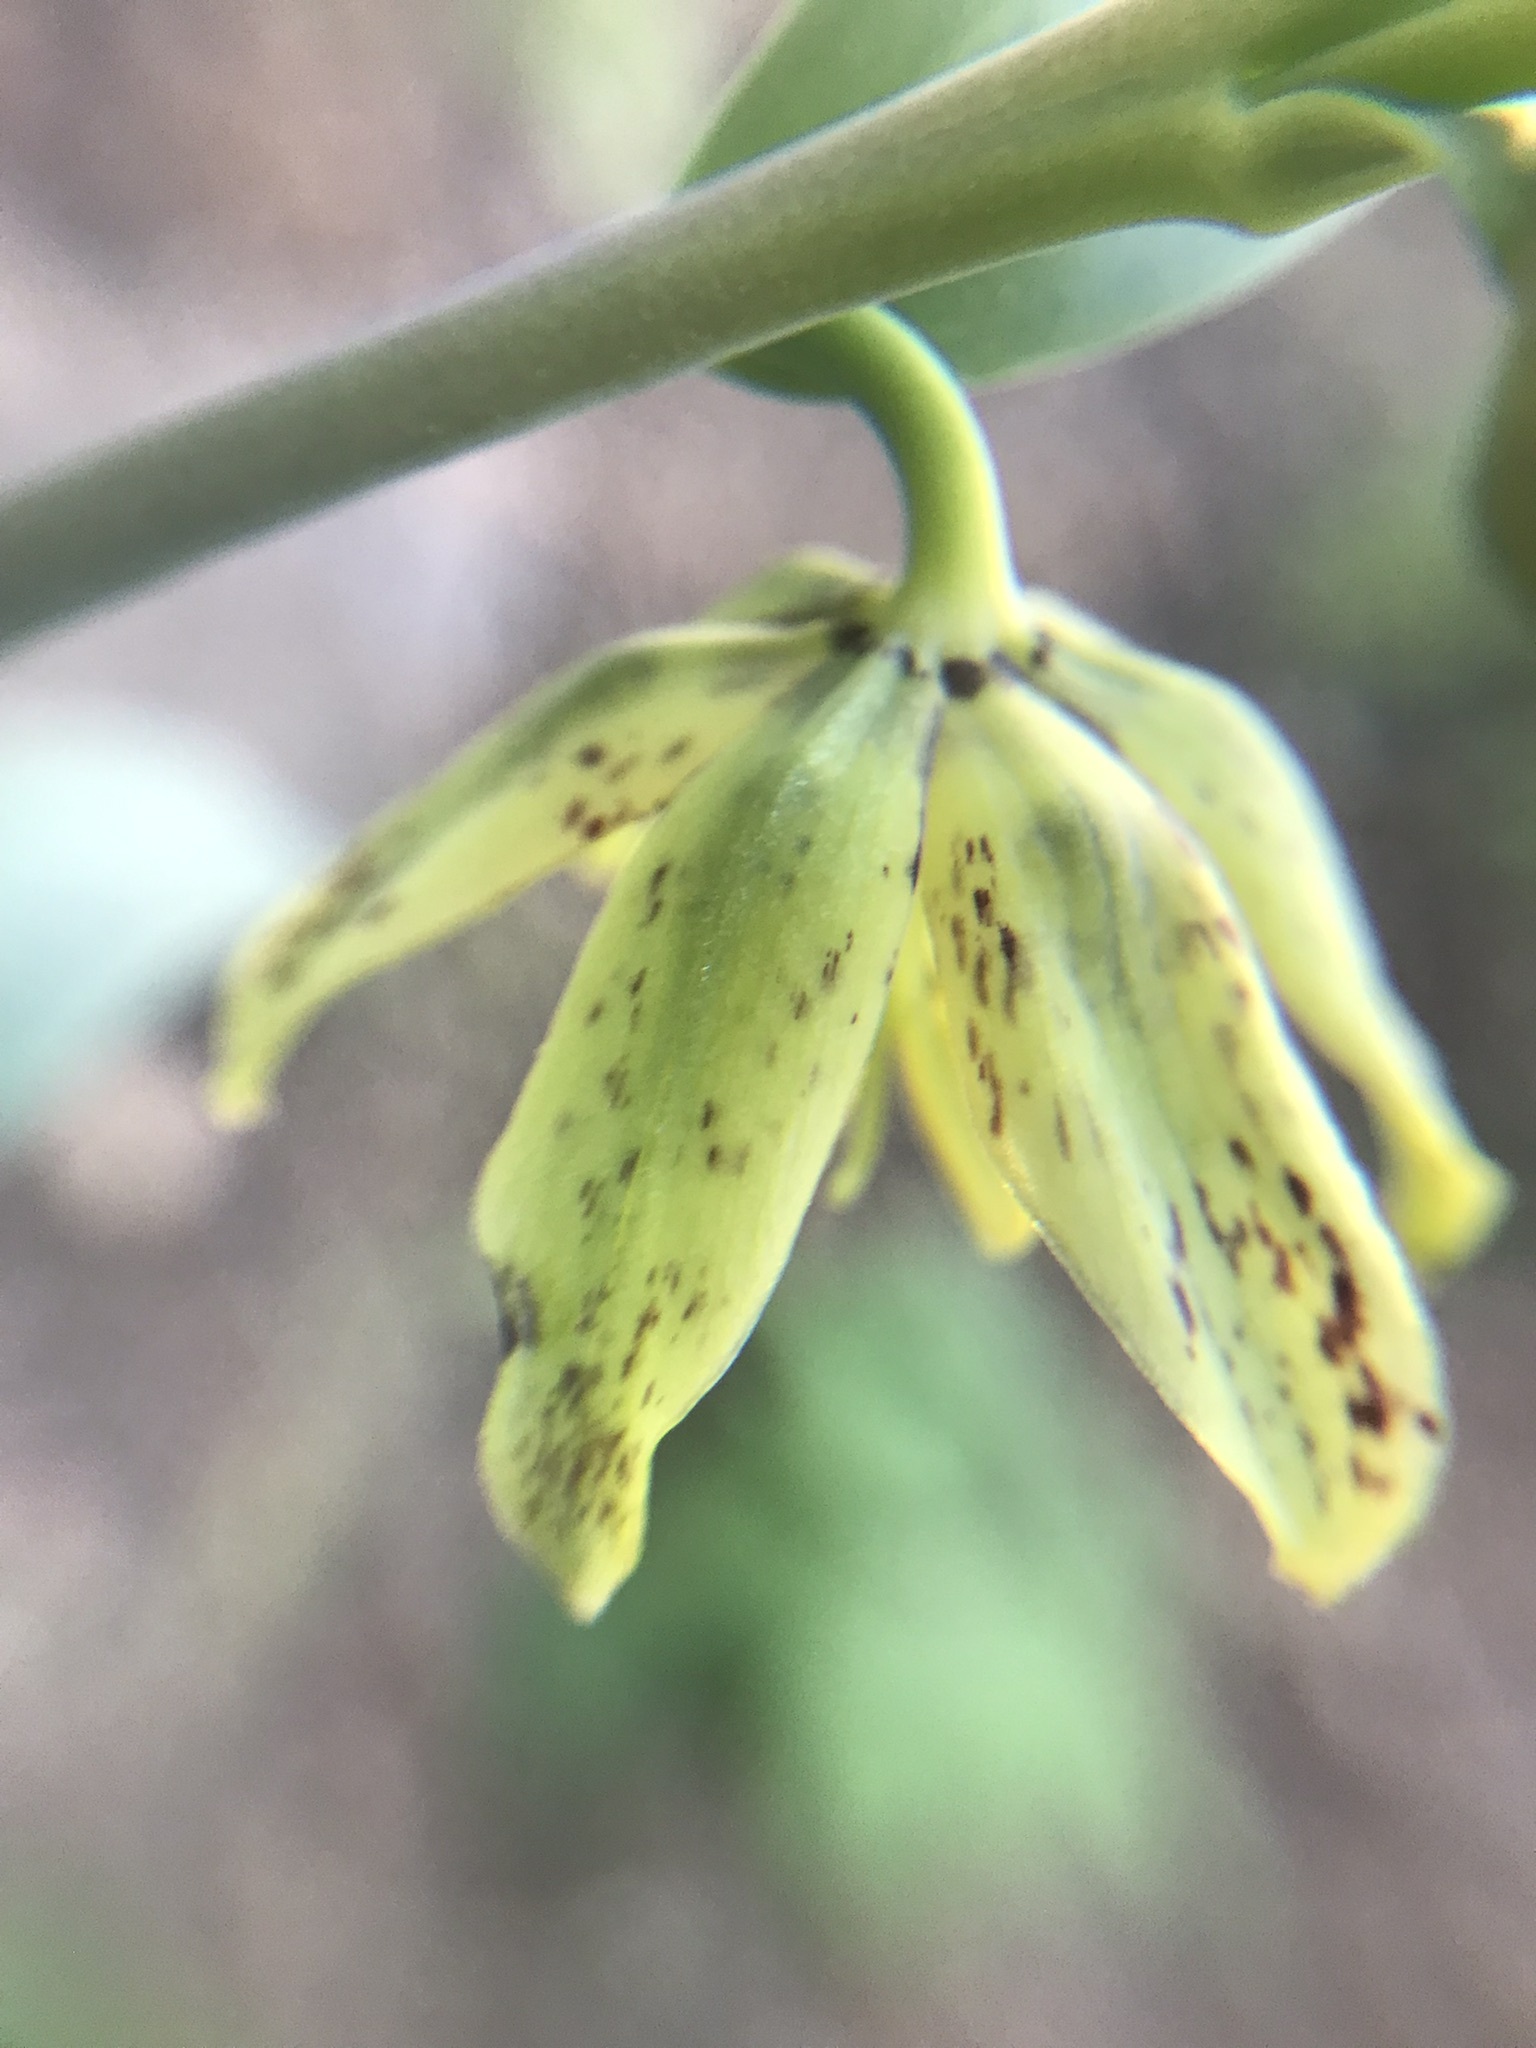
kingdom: Plantae
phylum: Tracheophyta
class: Liliopsida
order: Liliales
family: Liliaceae
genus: Fritillaria
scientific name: Fritillaria affinis
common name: Ojai fritillary
